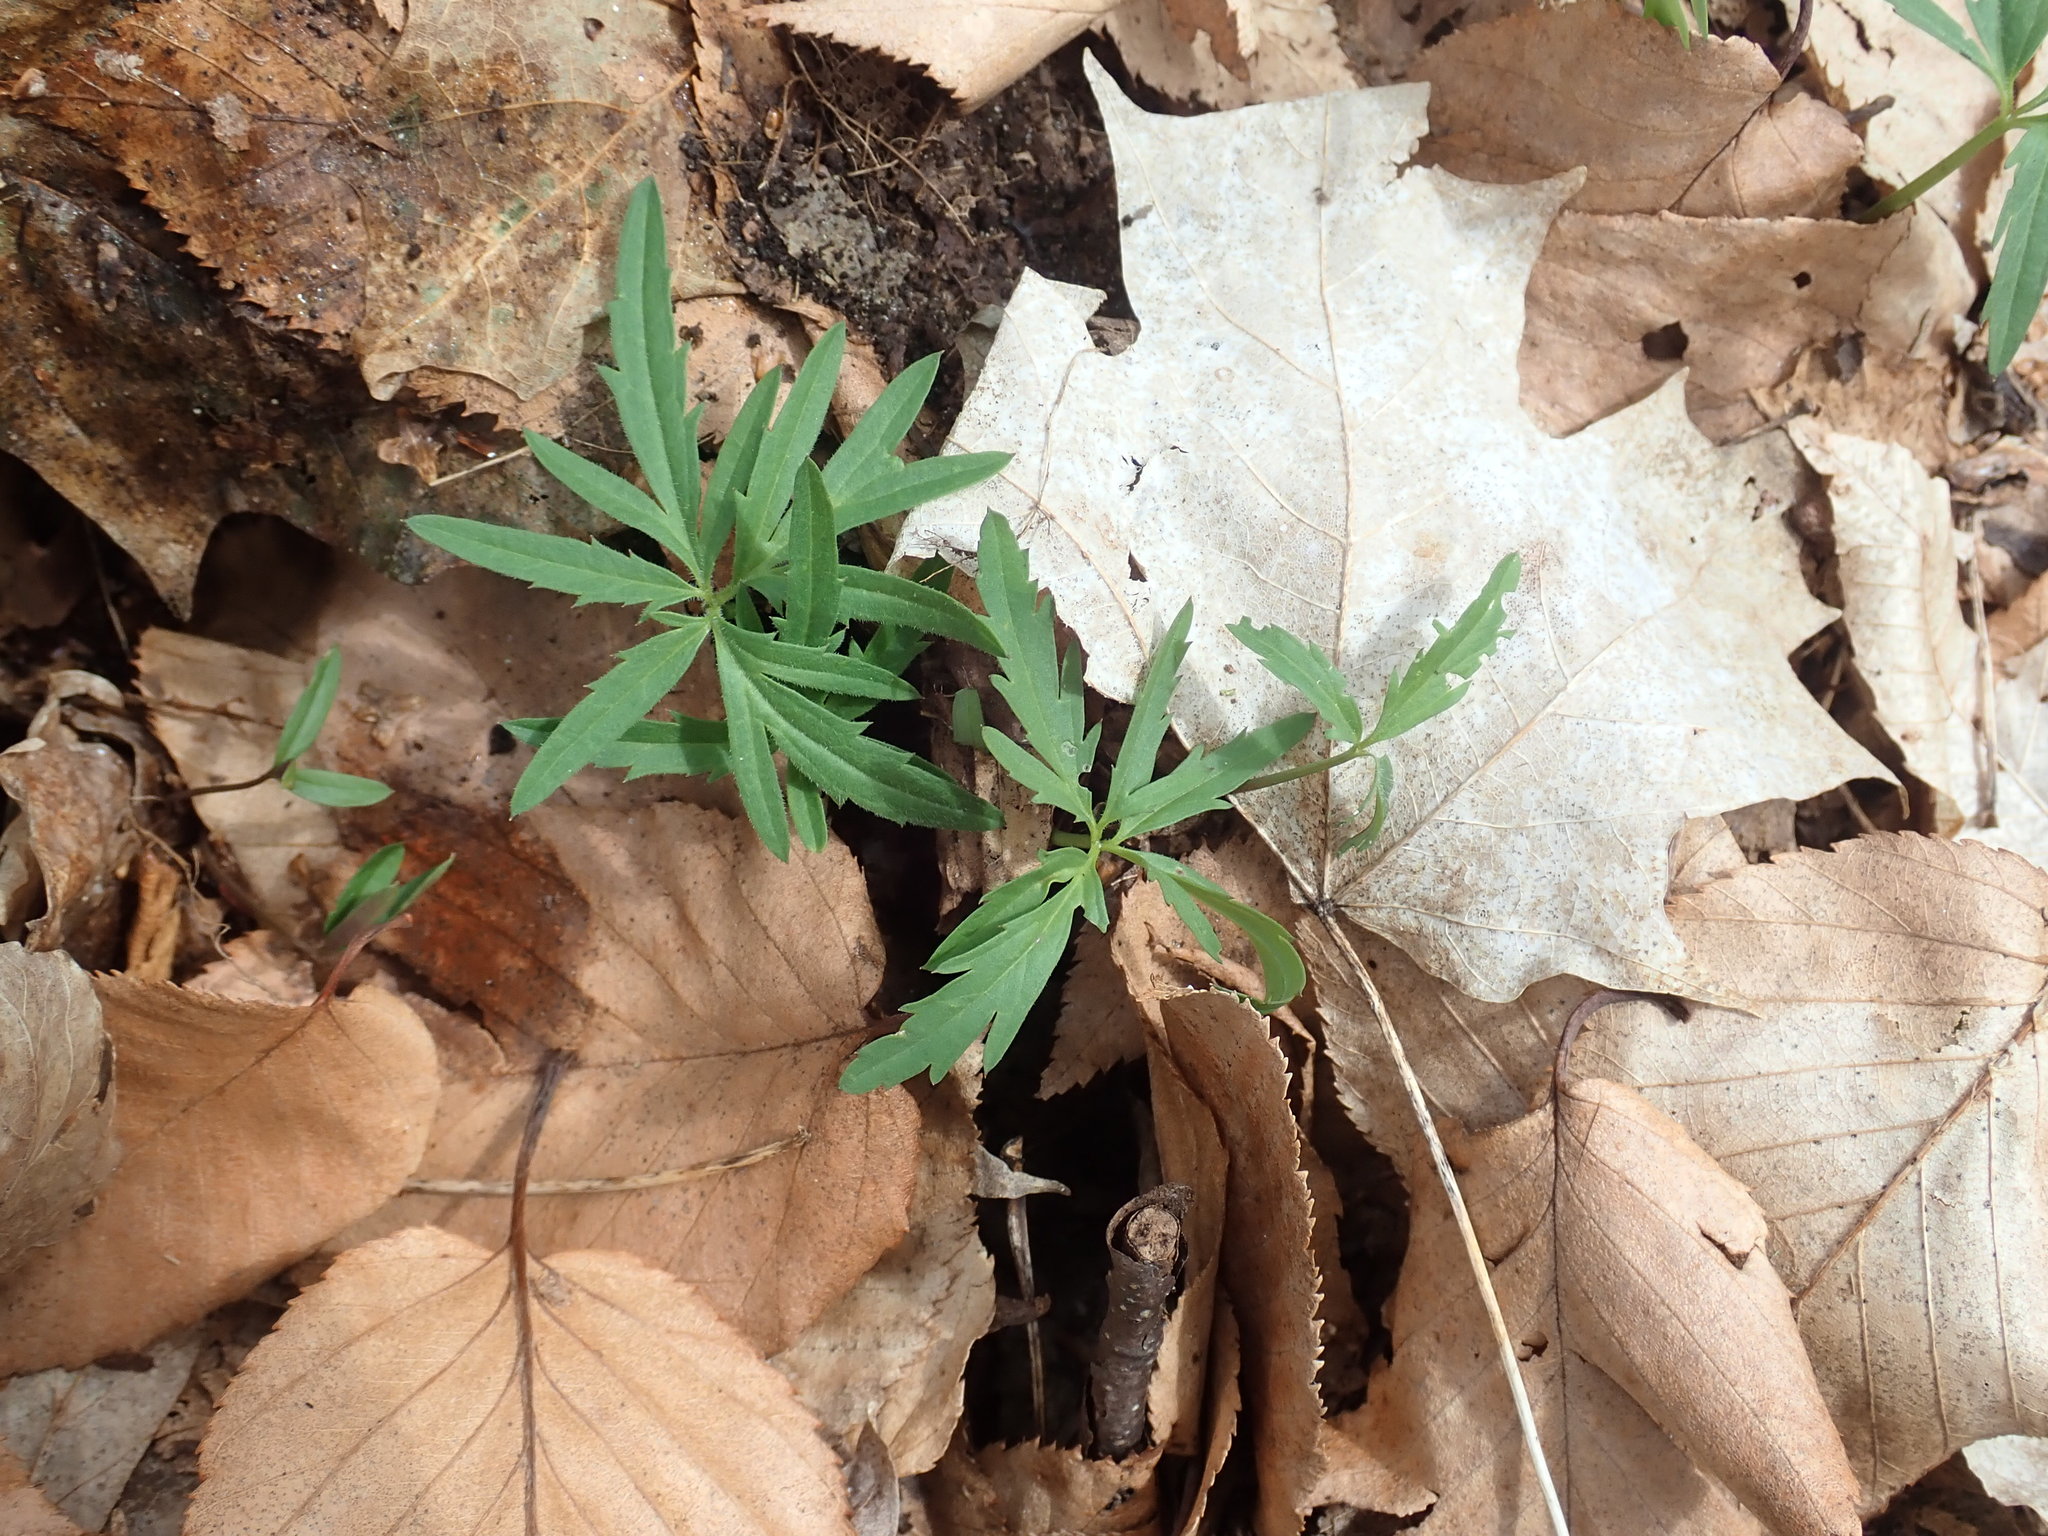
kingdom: Plantae
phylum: Tracheophyta
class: Magnoliopsida
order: Brassicales
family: Brassicaceae
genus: Cardamine
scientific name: Cardamine concatenata
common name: Cut-leaf toothcup
